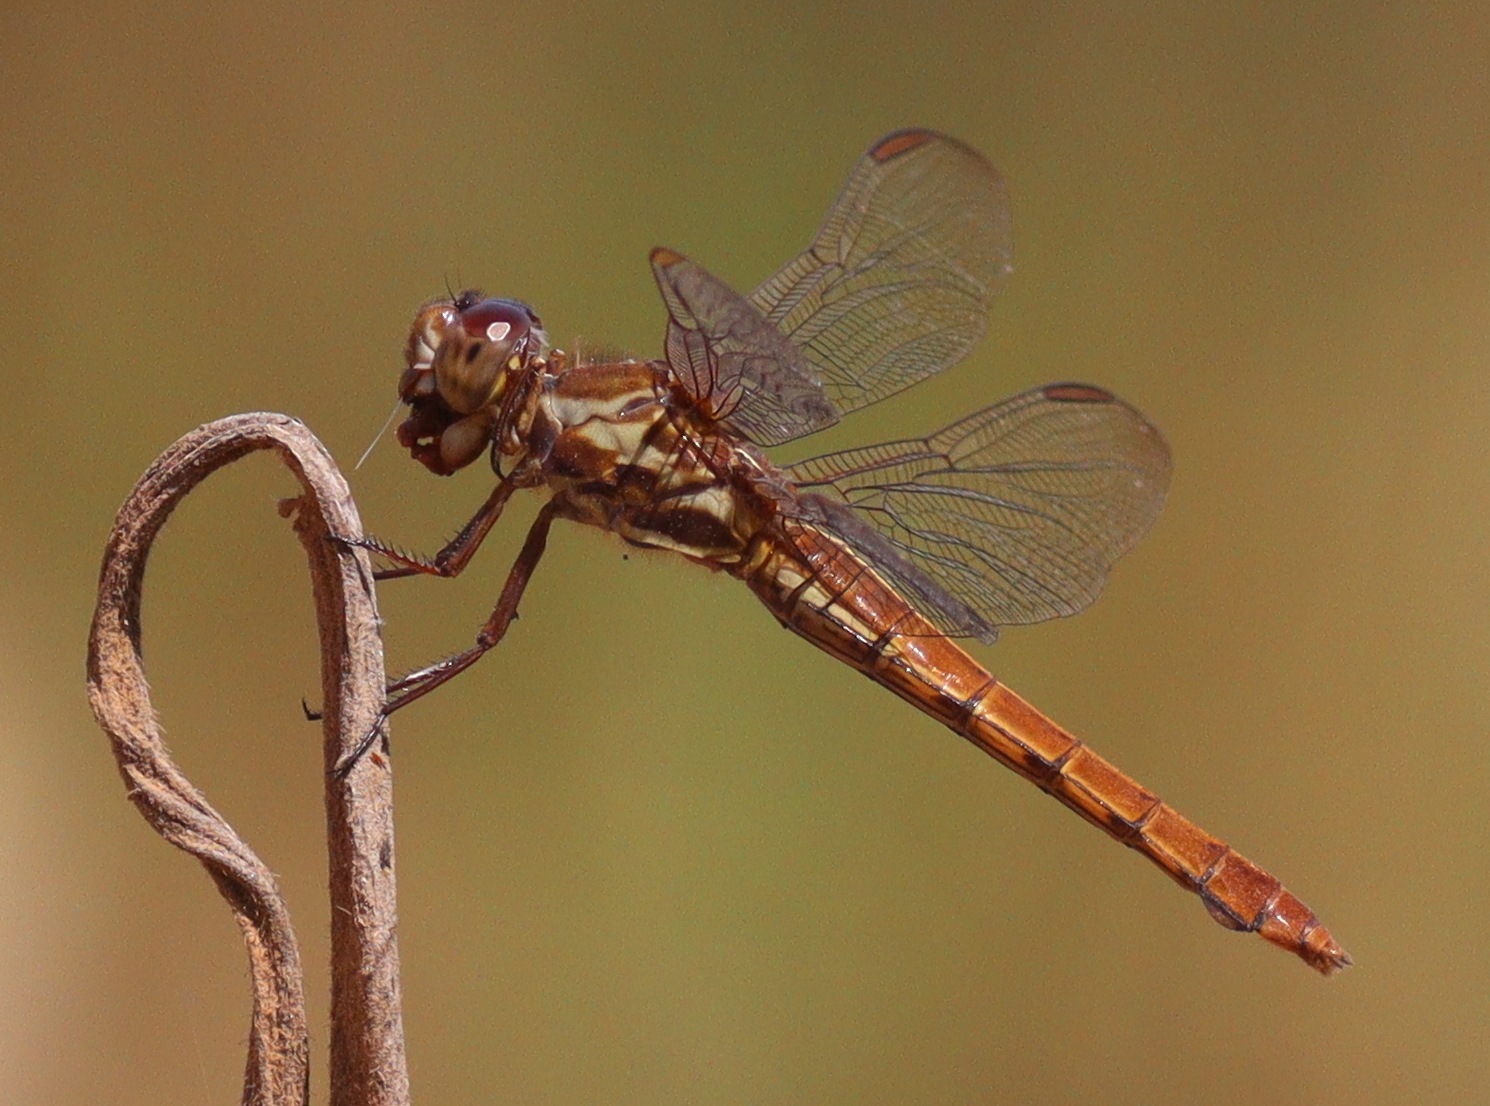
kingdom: Animalia
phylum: Arthropoda
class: Insecta
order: Odonata
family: Libellulidae
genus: Orthemis
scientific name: Orthemis aequilibris
